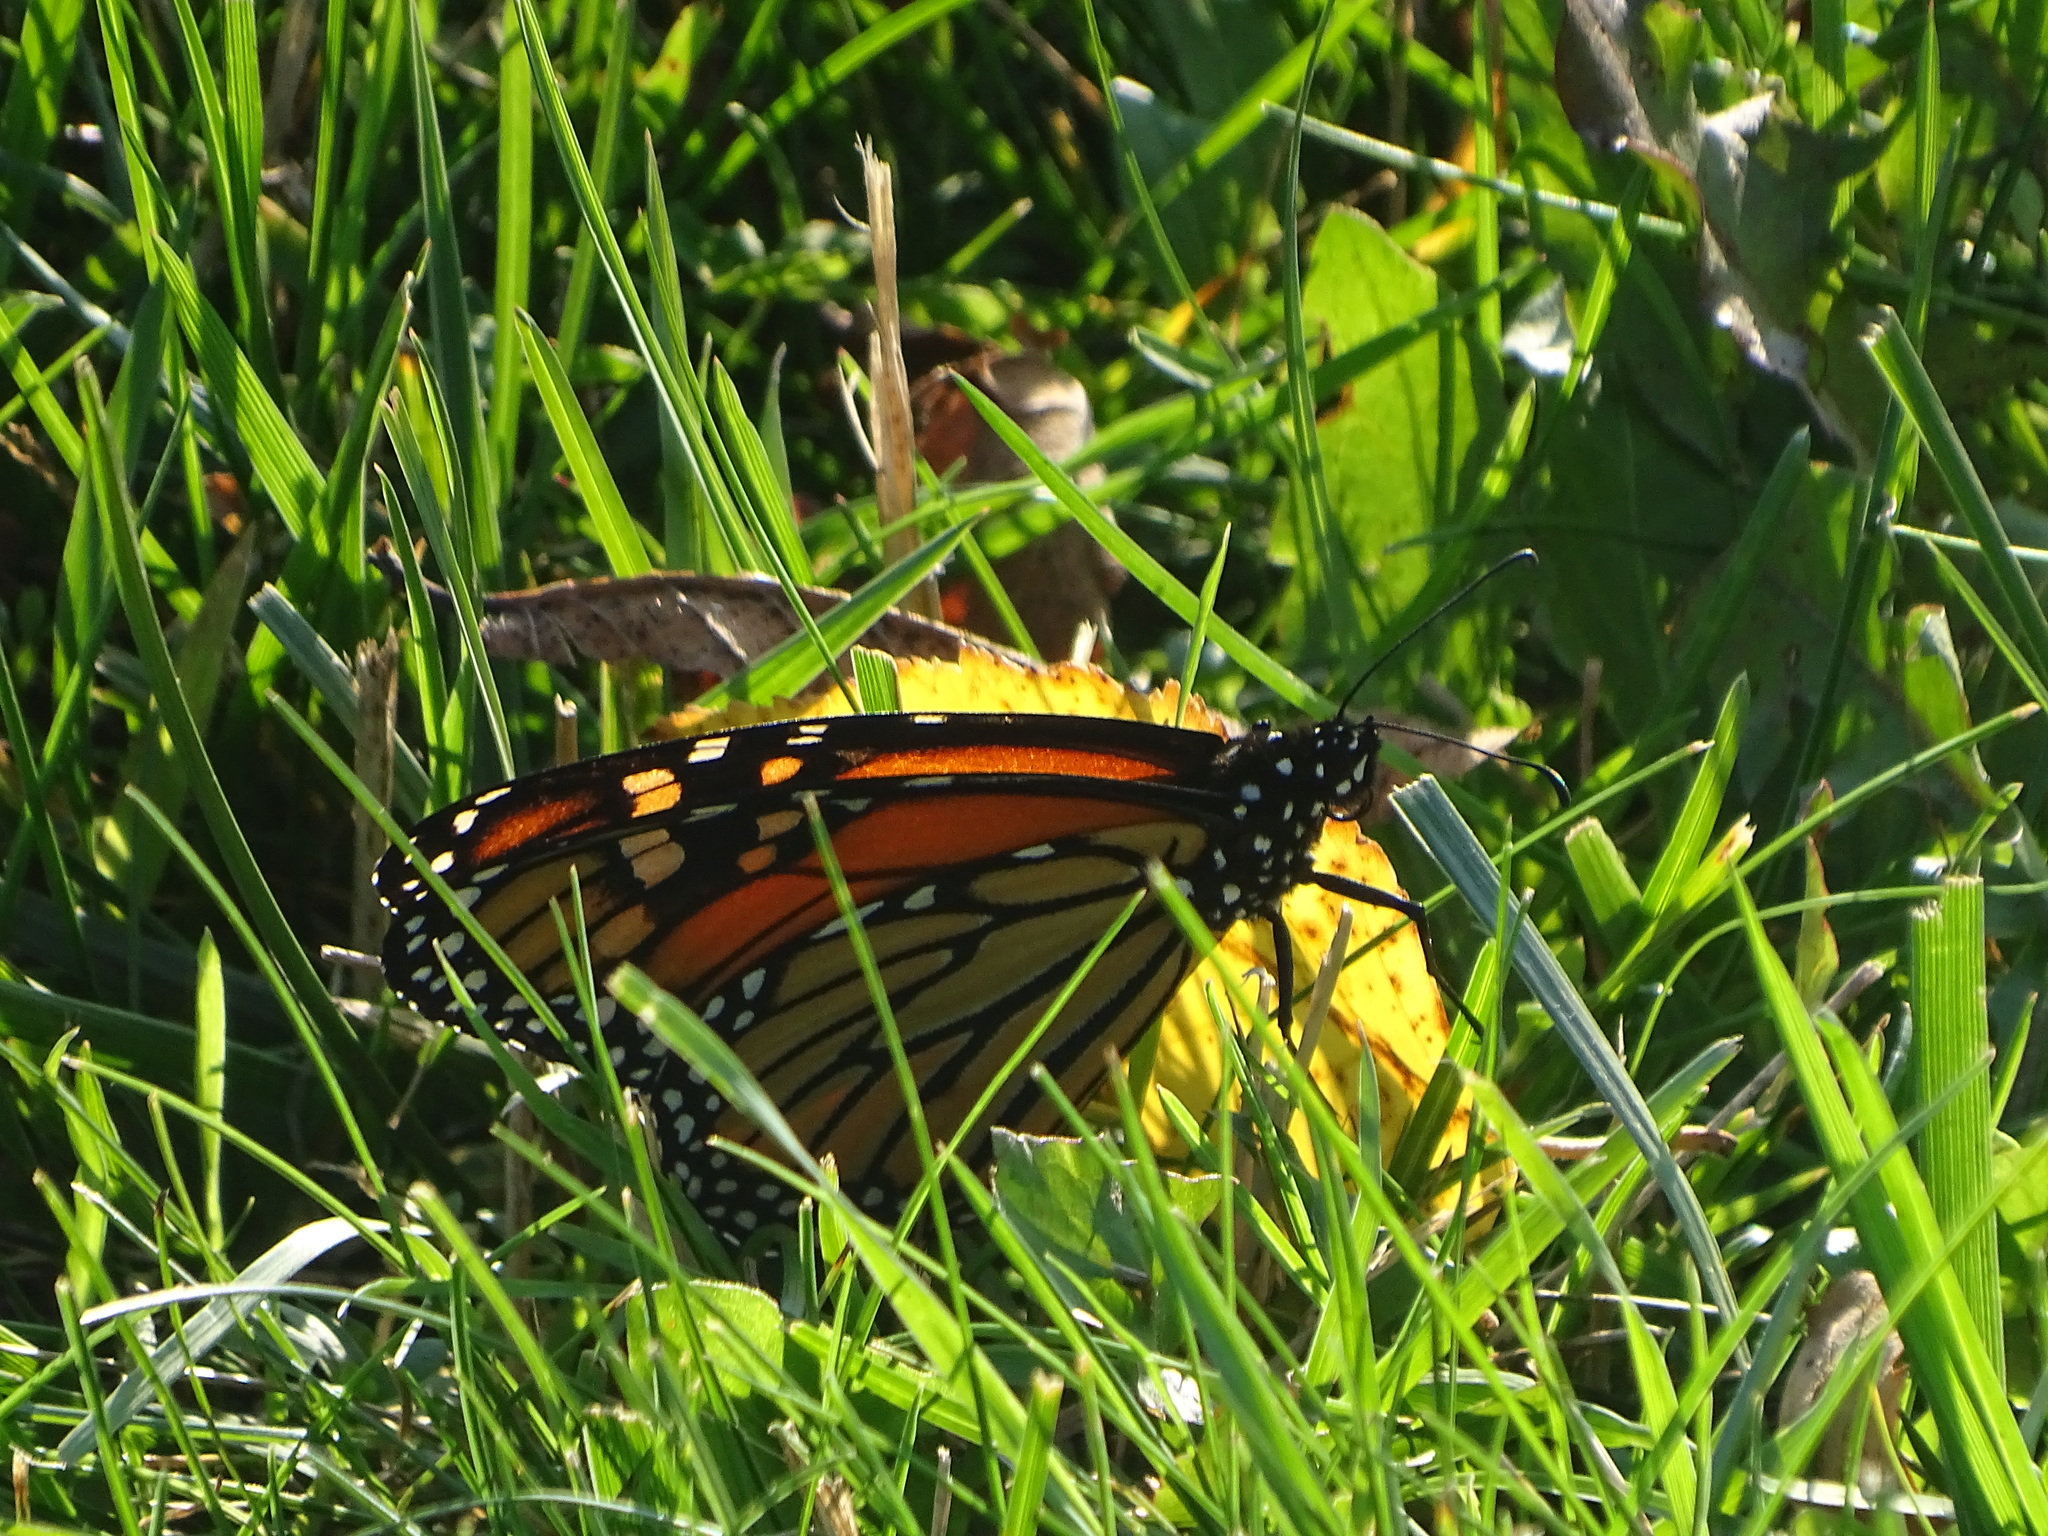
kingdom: Animalia
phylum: Arthropoda
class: Insecta
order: Lepidoptera
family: Nymphalidae
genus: Danaus
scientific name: Danaus plexippus
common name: Monarch
